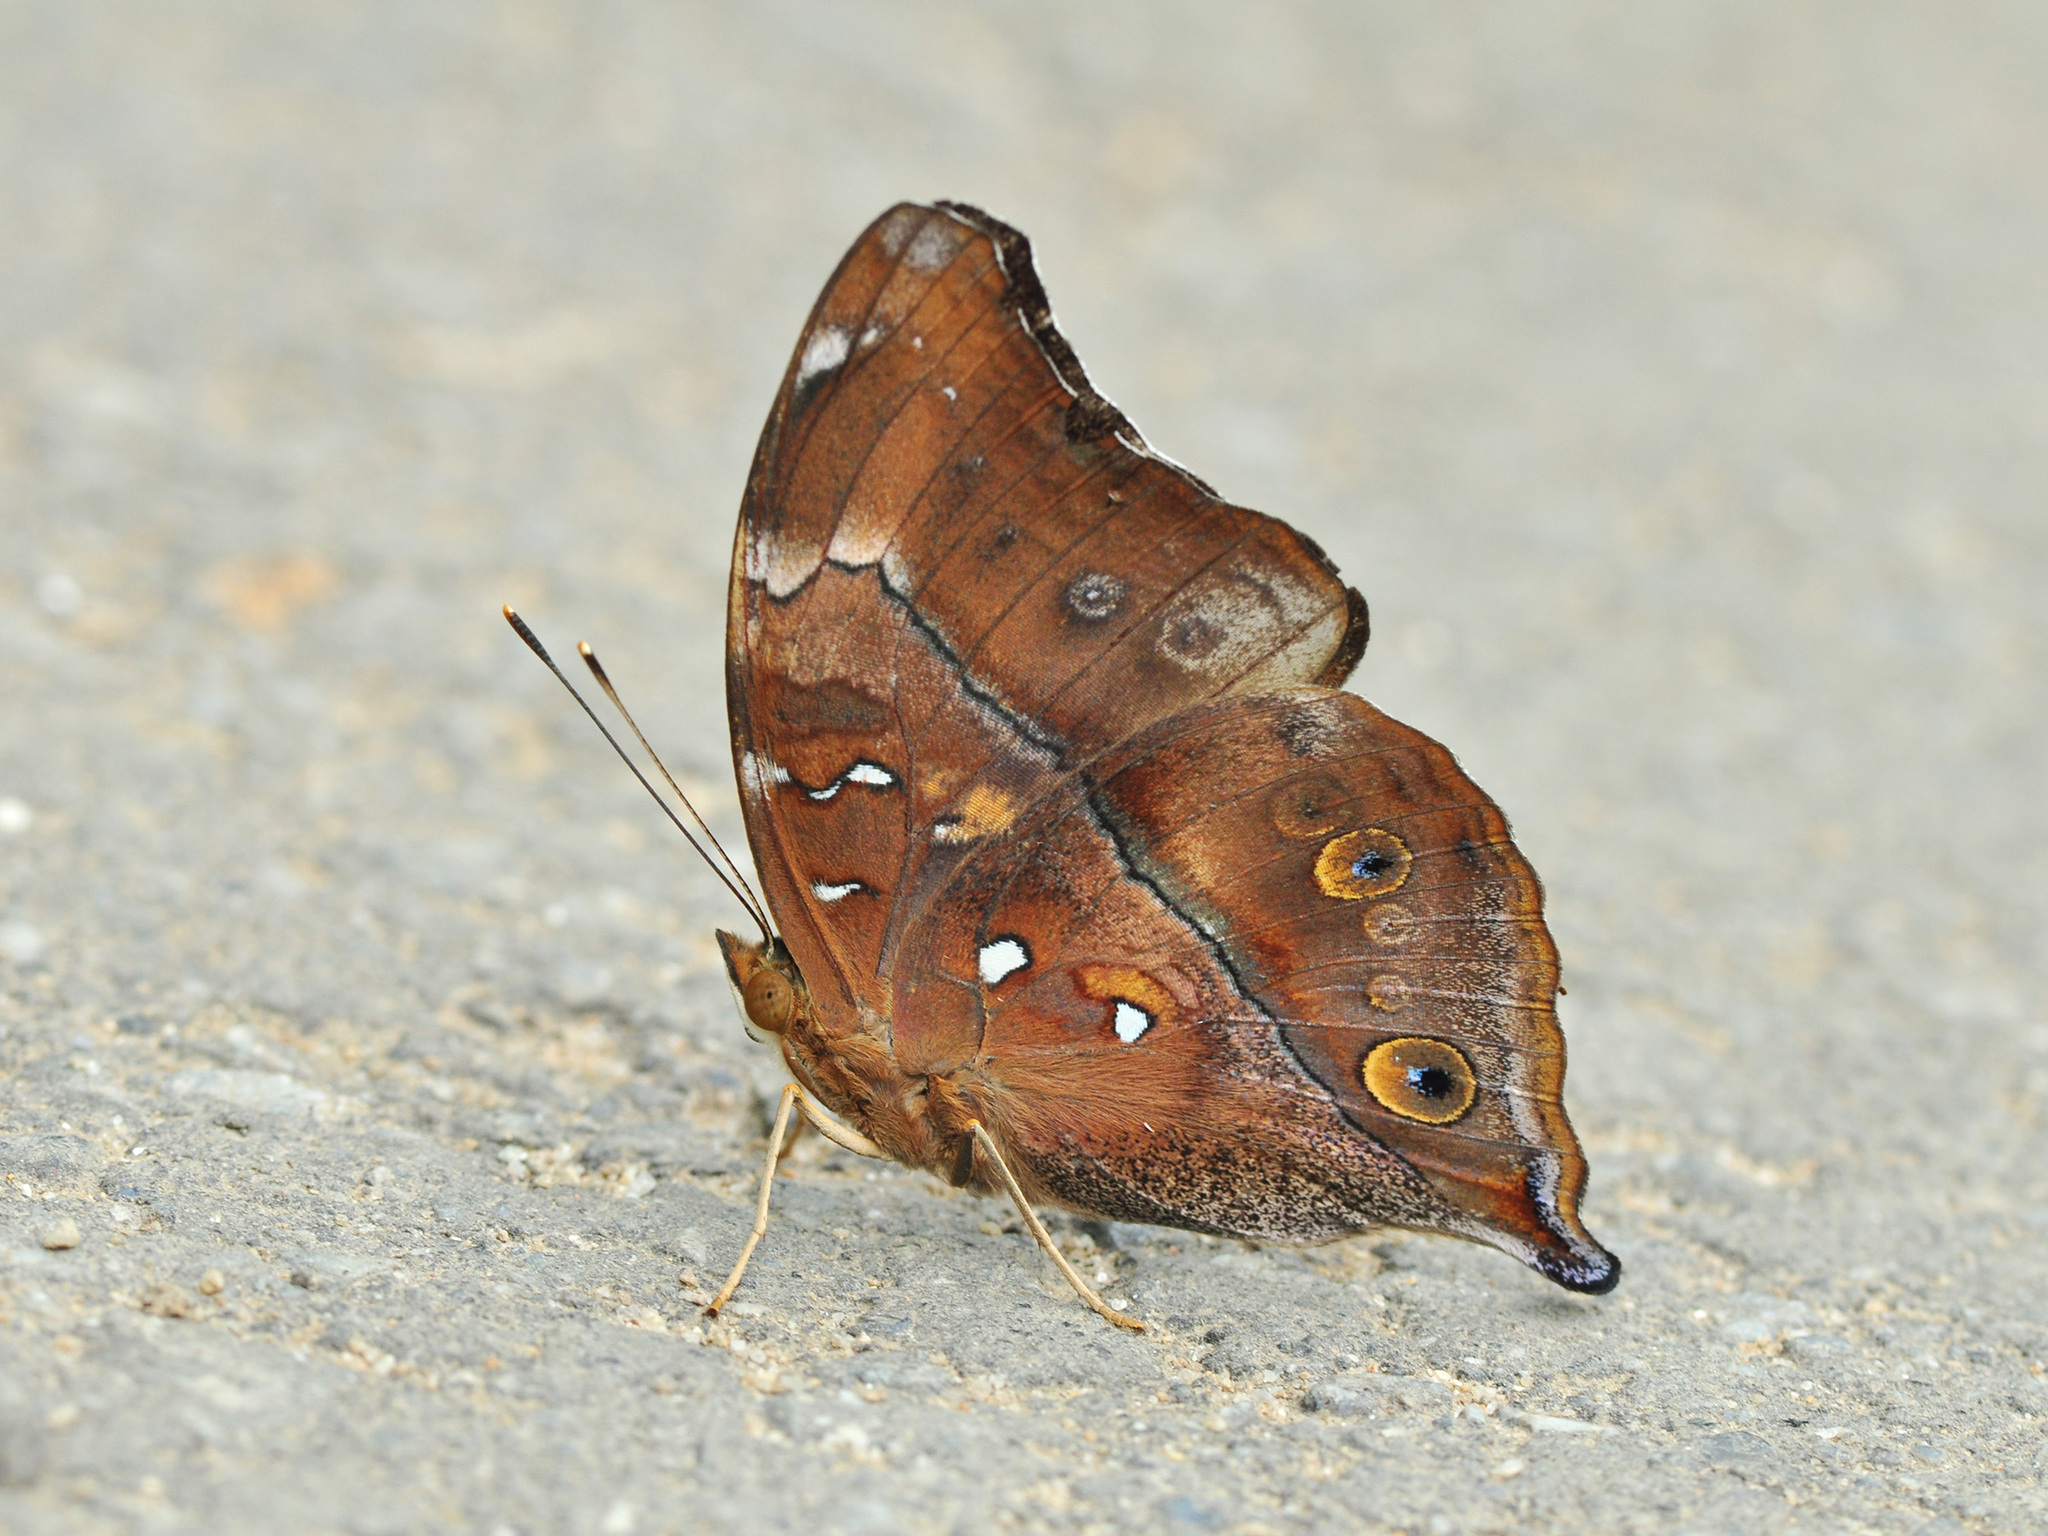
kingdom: Animalia
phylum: Arthropoda
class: Insecta
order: Lepidoptera
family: Nymphalidae
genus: Doleschallia
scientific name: Doleschallia bisaltide
